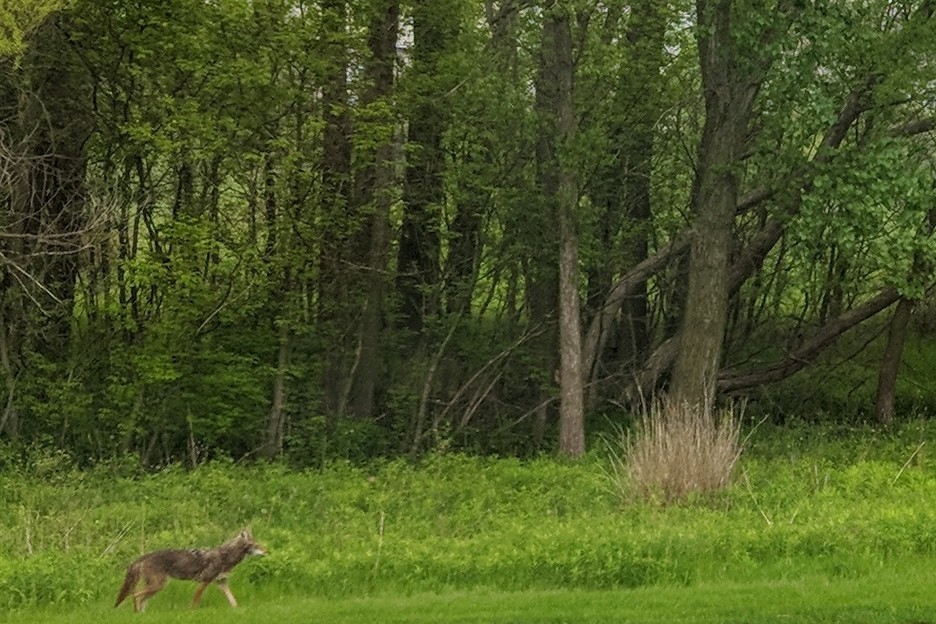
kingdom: Animalia
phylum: Chordata
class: Mammalia
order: Carnivora
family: Canidae
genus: Canis
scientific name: Canis latrans
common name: Coyote
